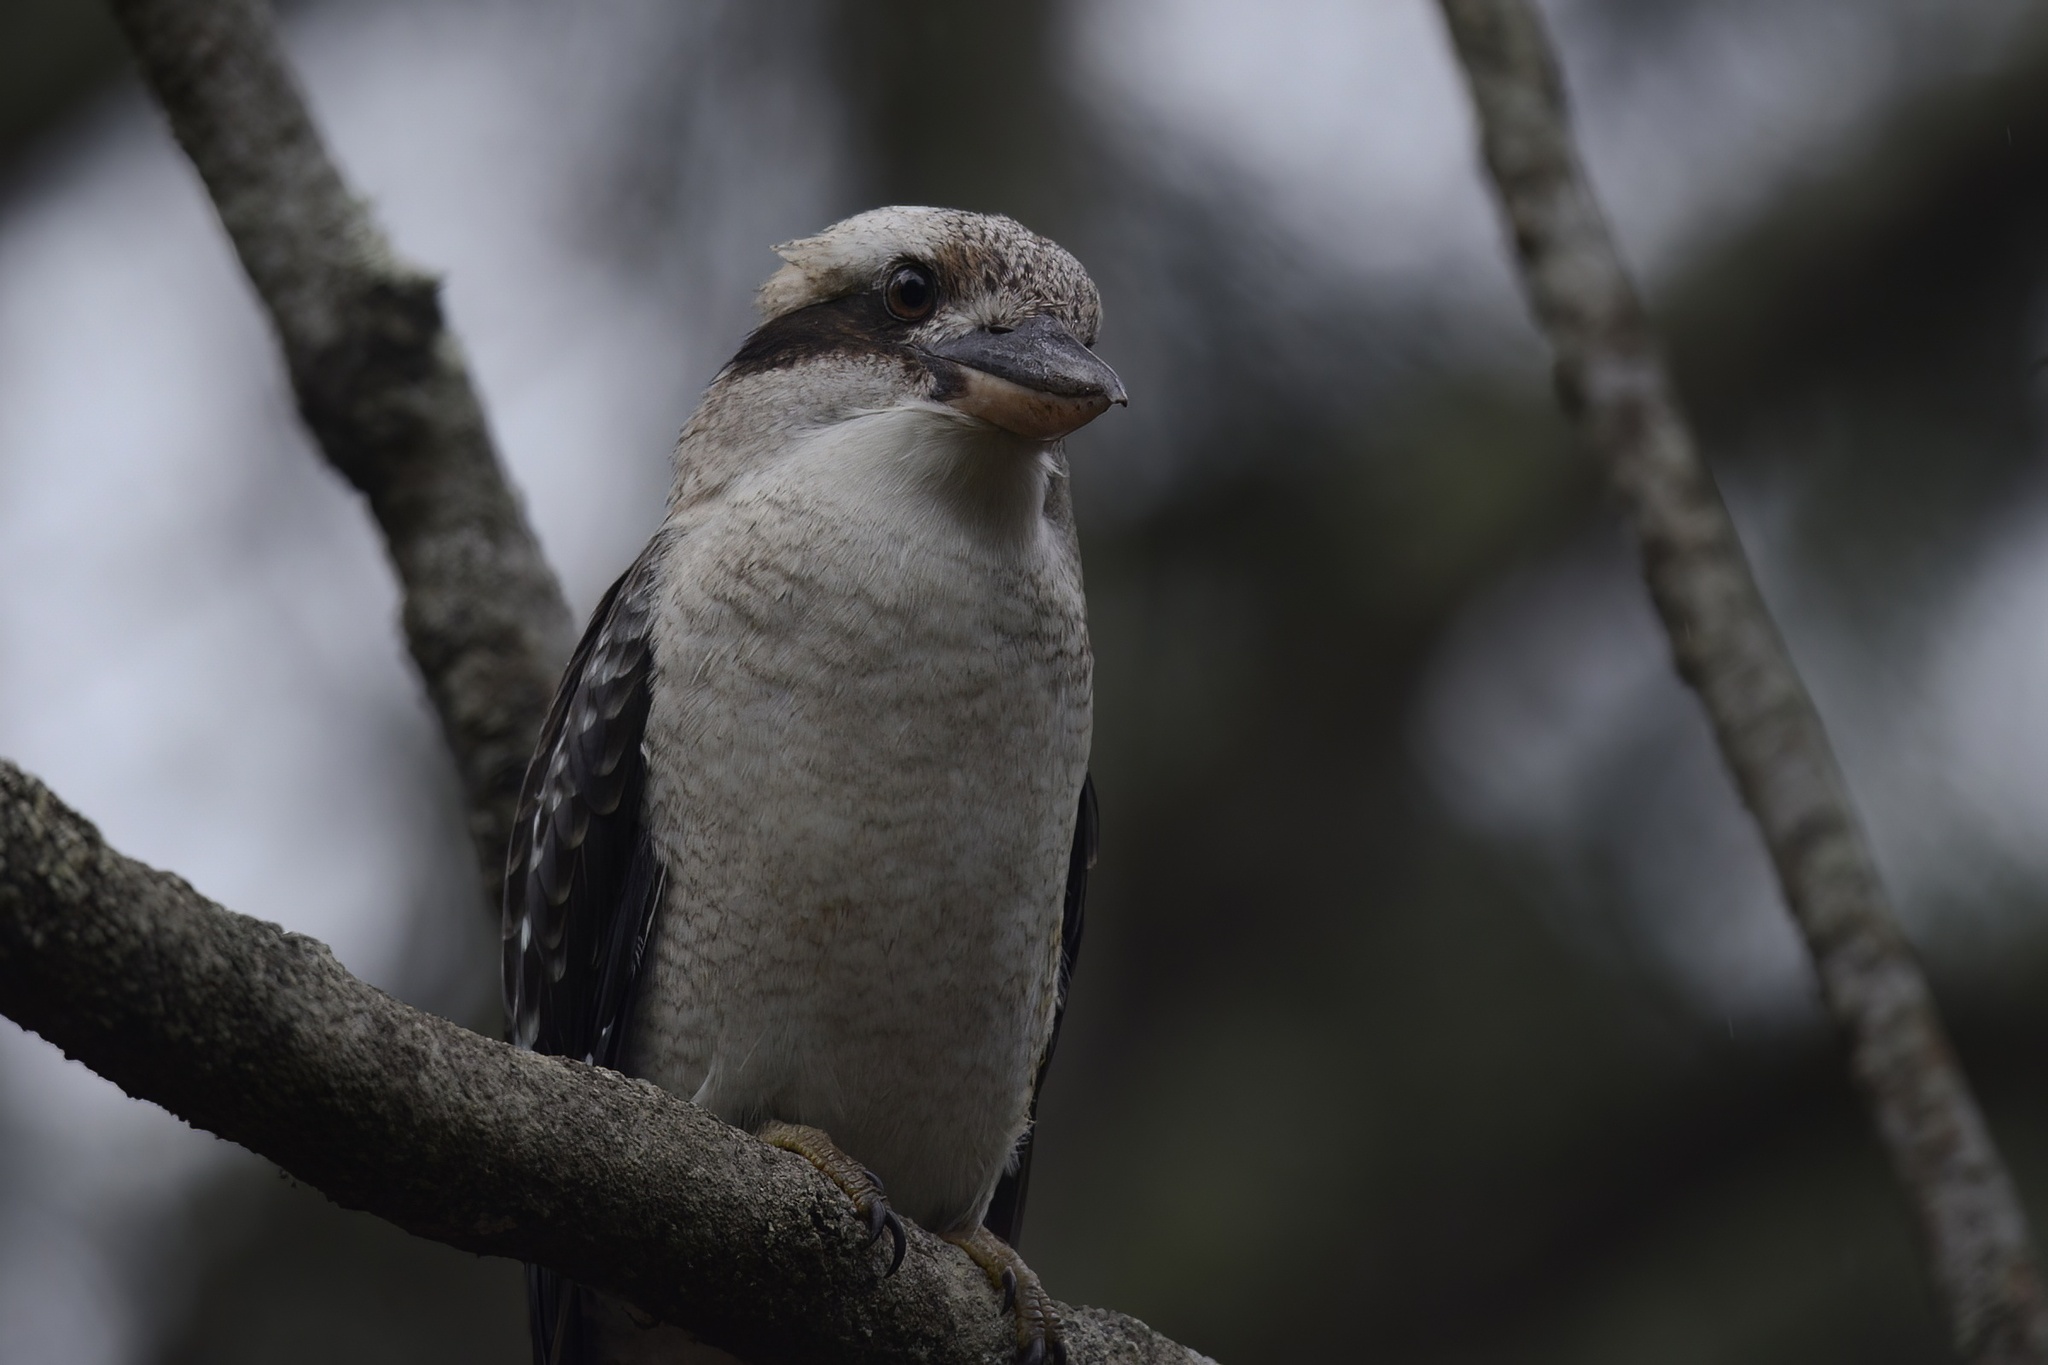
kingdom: Animalia
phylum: Chordata
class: Aves
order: Coraciiformes
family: Alcedinidae
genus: Dacelo
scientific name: Dacelo novaeguineae
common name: Laughing kookaburra
